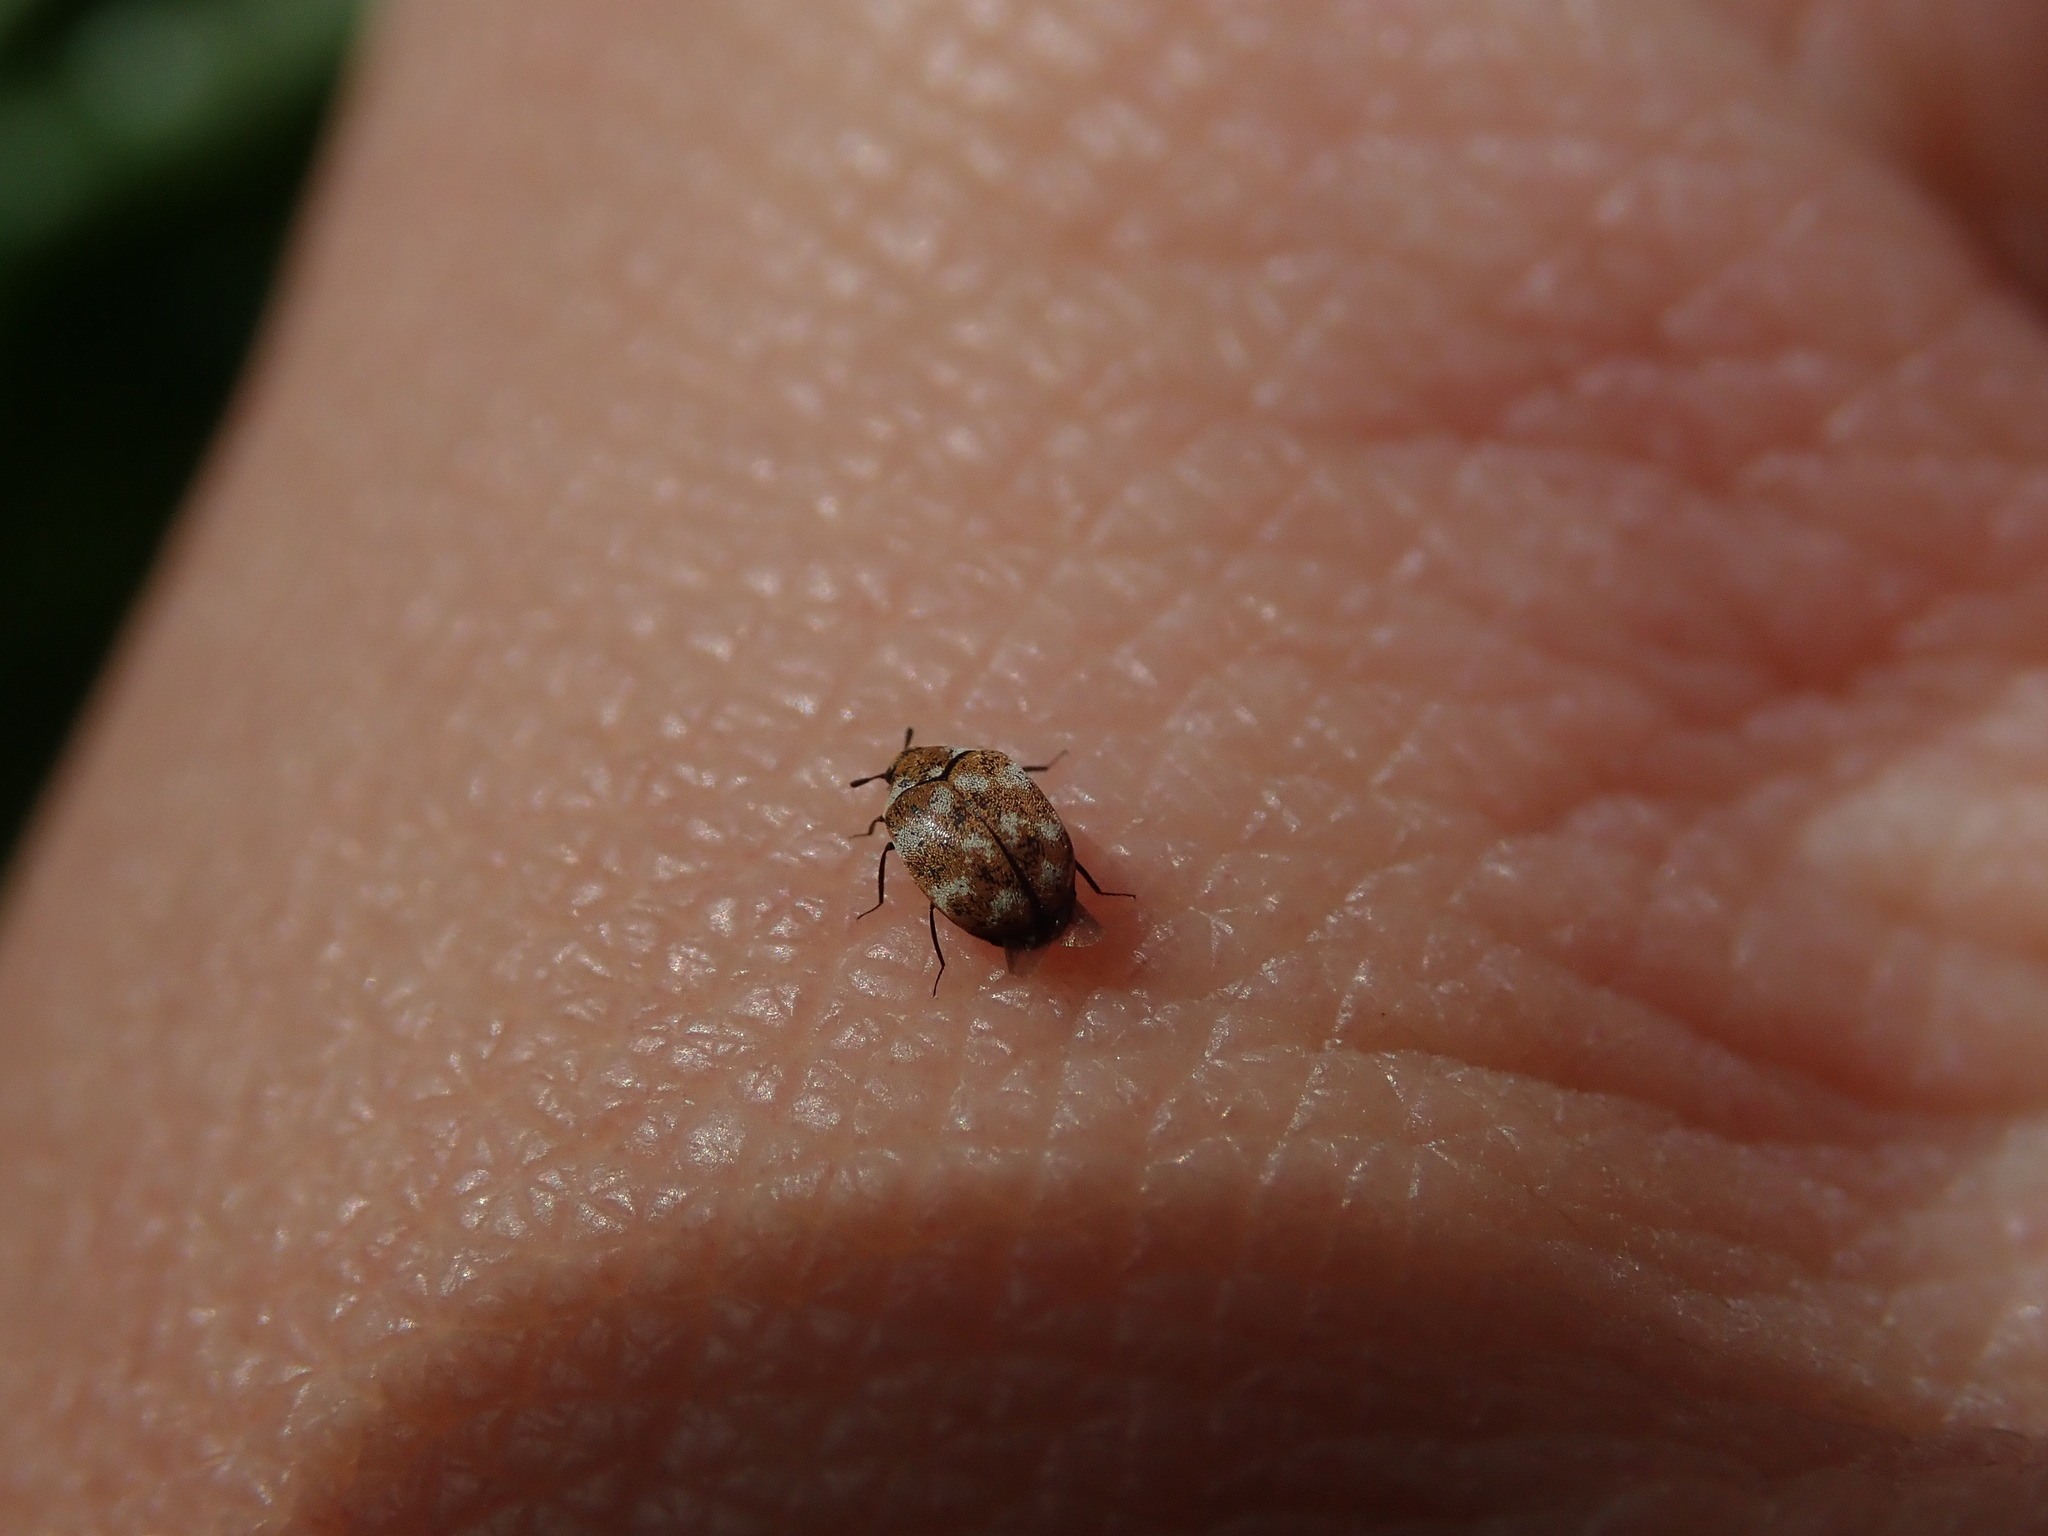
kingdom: Animalia
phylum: Arthropoda
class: Insecta
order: Coleoptera
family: Dermestidae
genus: Anthrenus
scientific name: Anthrenus verbasci
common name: Varied carpet beetle
